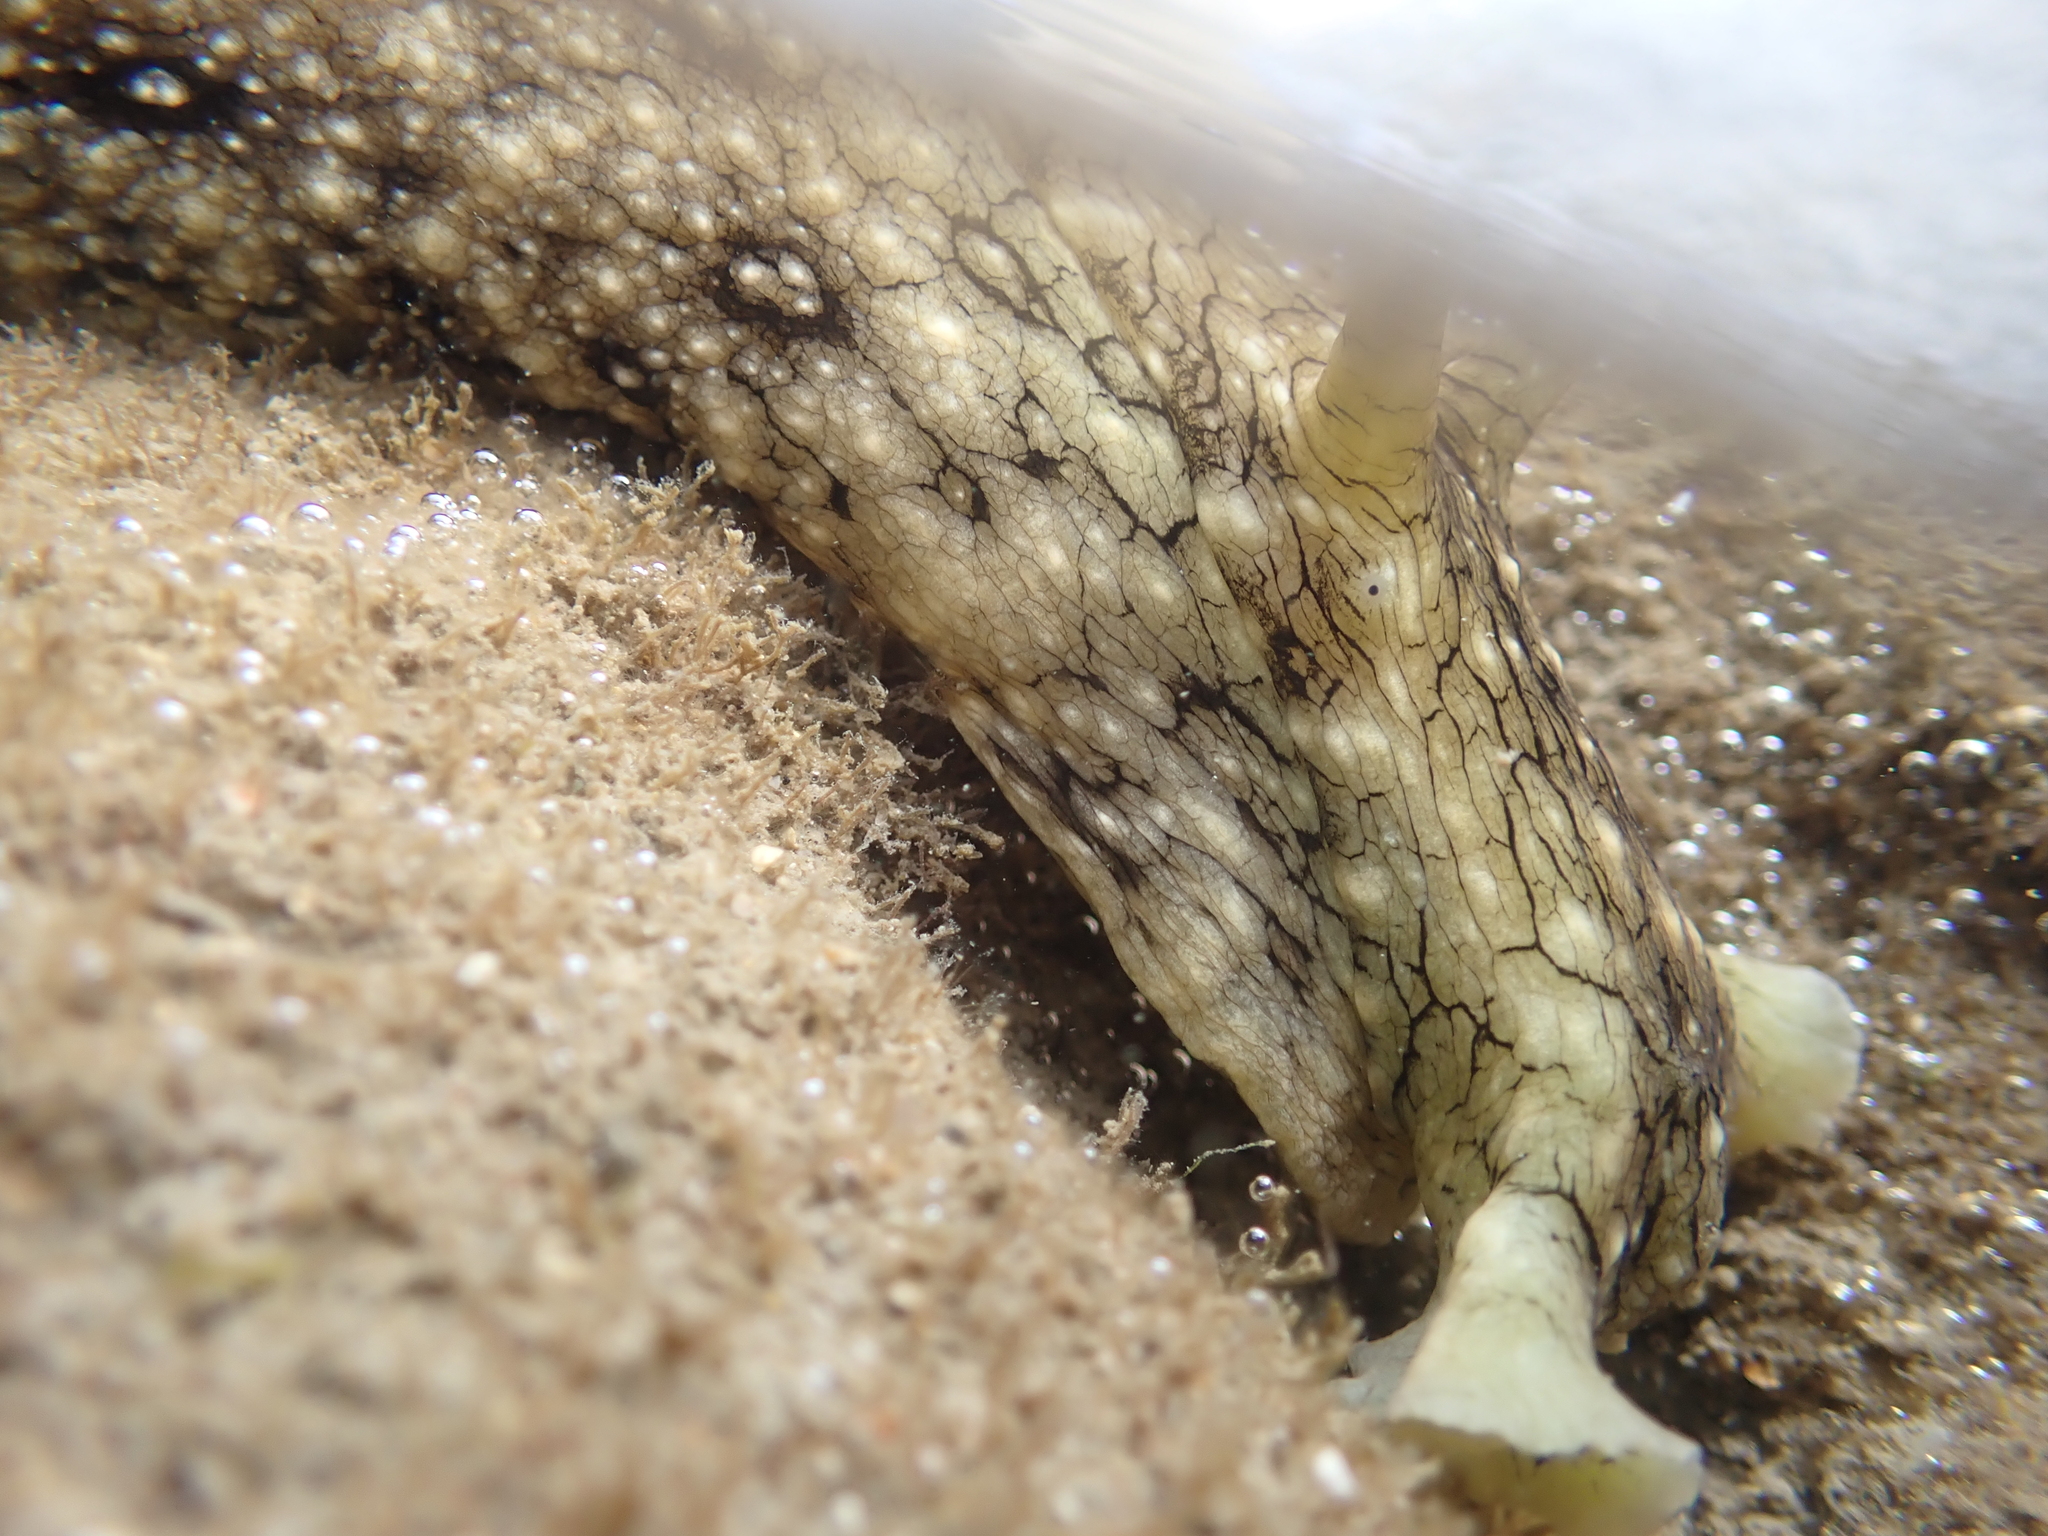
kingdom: Animalia
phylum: Mollusca
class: Gastropoda
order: Aplysiida
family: Aplysiidae
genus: Aplysia
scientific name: Aplysia argus
